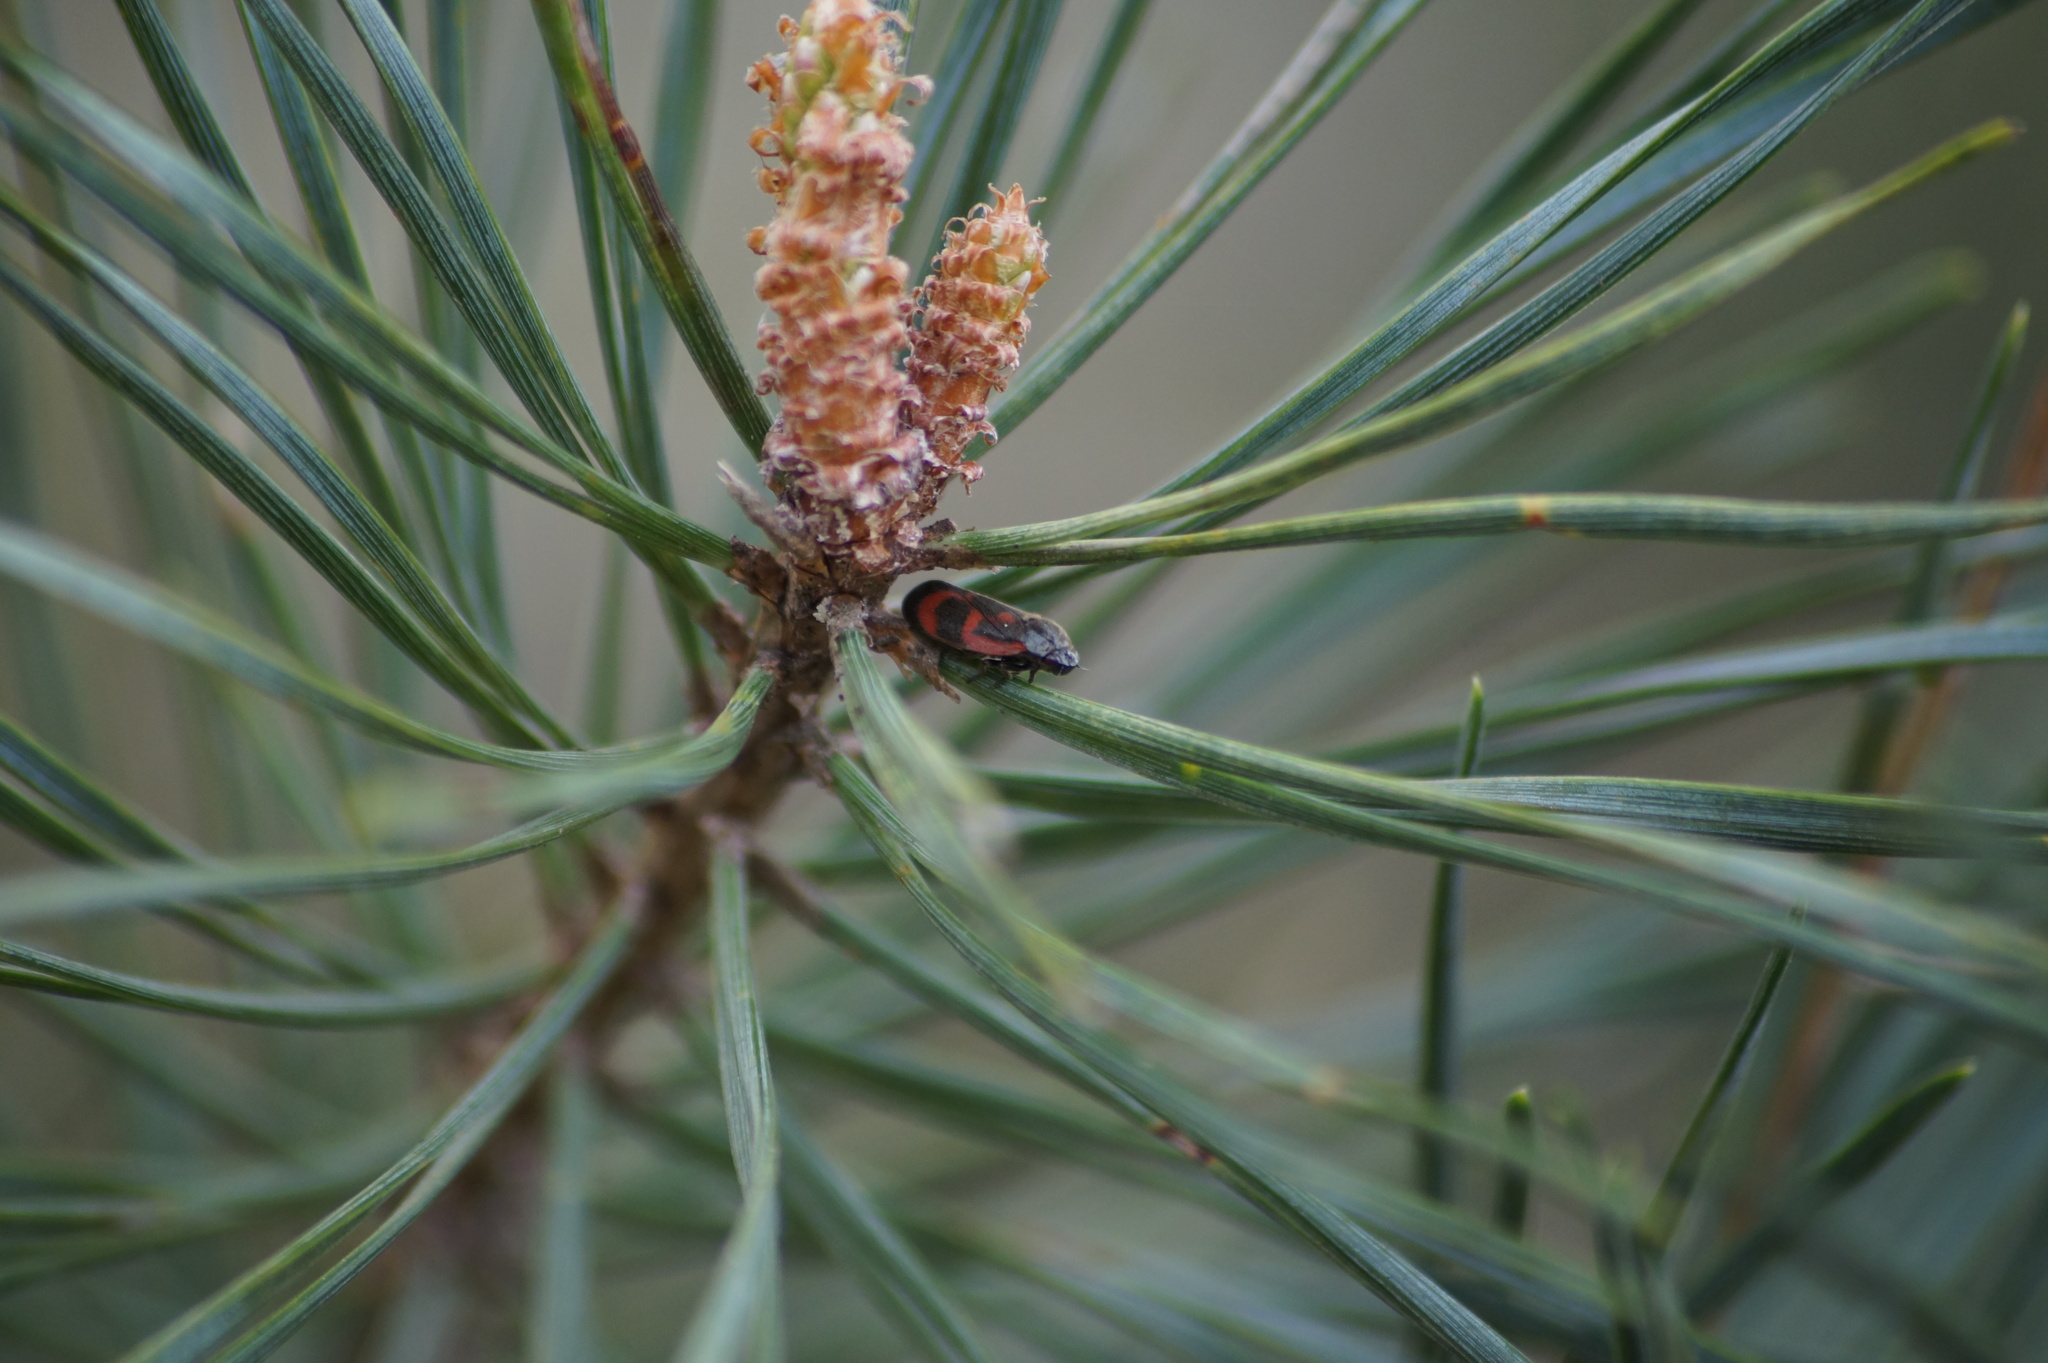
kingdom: Animalia
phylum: Arthropoda
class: Insecta
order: Hemiptera
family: Cercopidae
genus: Haematoloma
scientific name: Haematoloma dorsata
